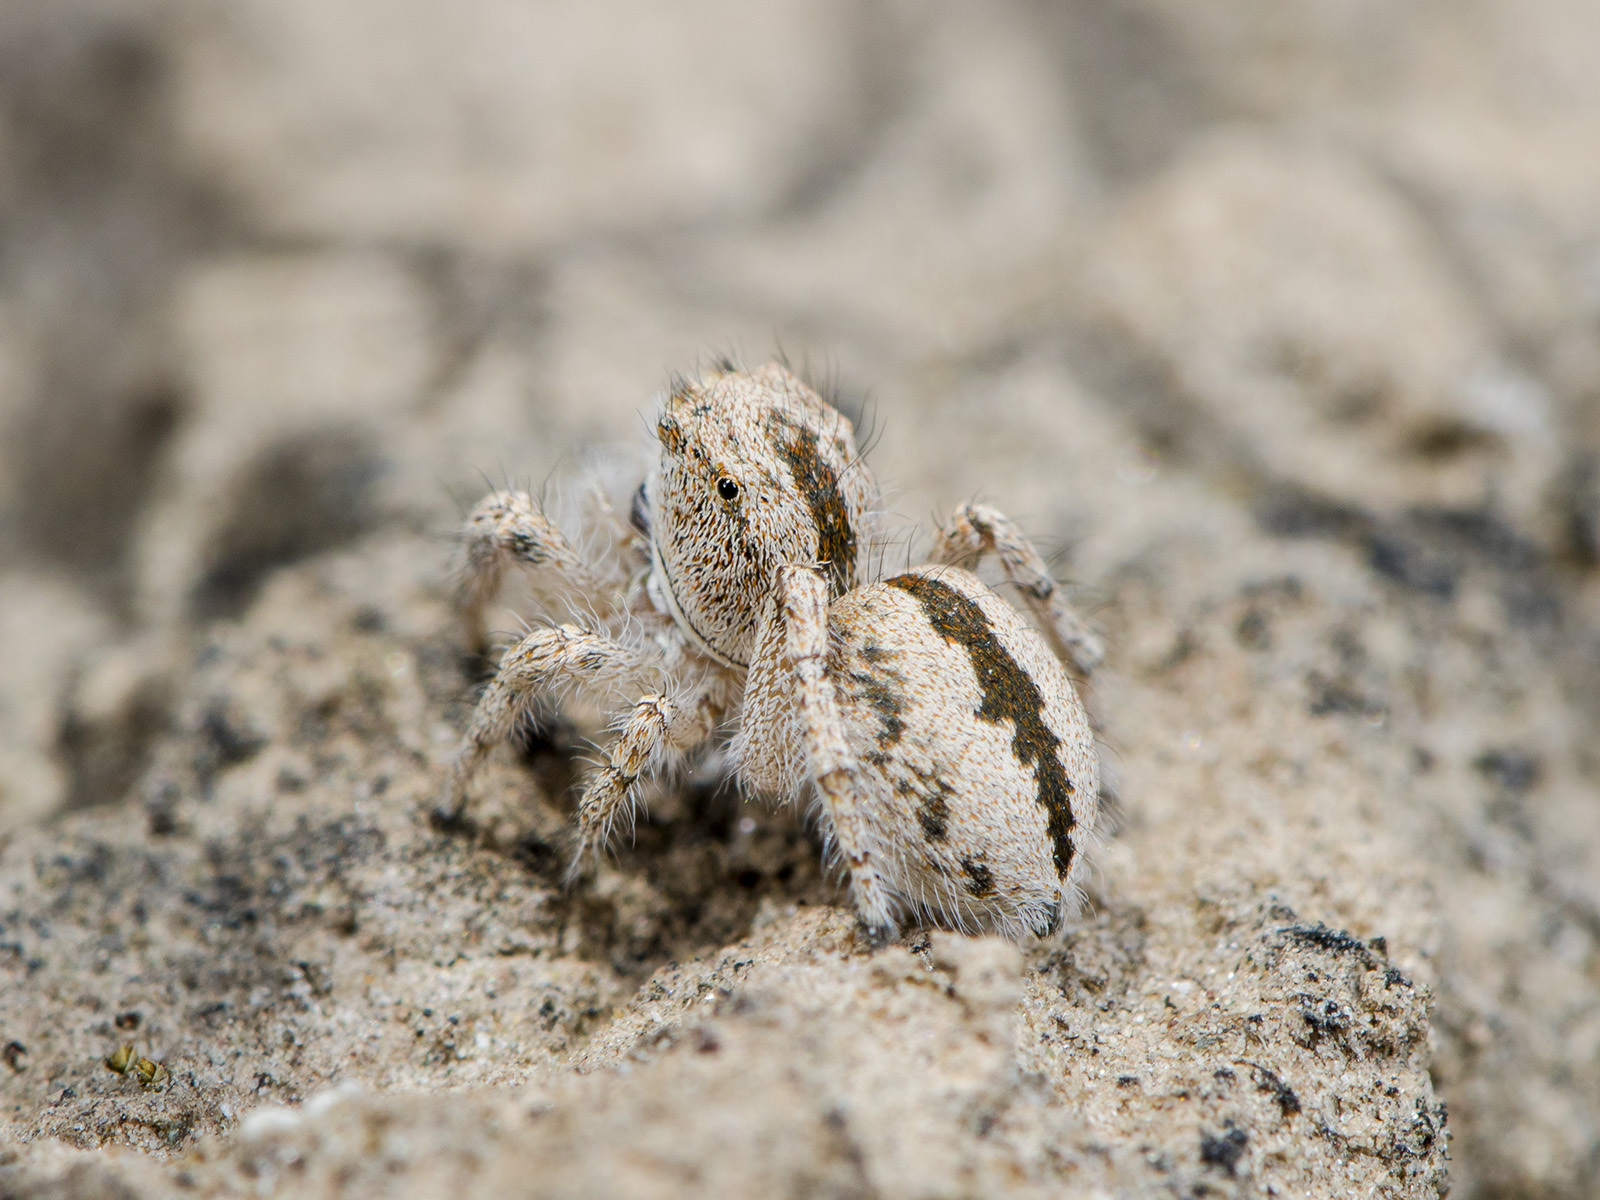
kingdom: Animalia
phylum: Arthropoda
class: Arachnida
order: Araneae
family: Salticidae
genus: Pseudomogrus
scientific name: Pseudomogrus guseinovi
